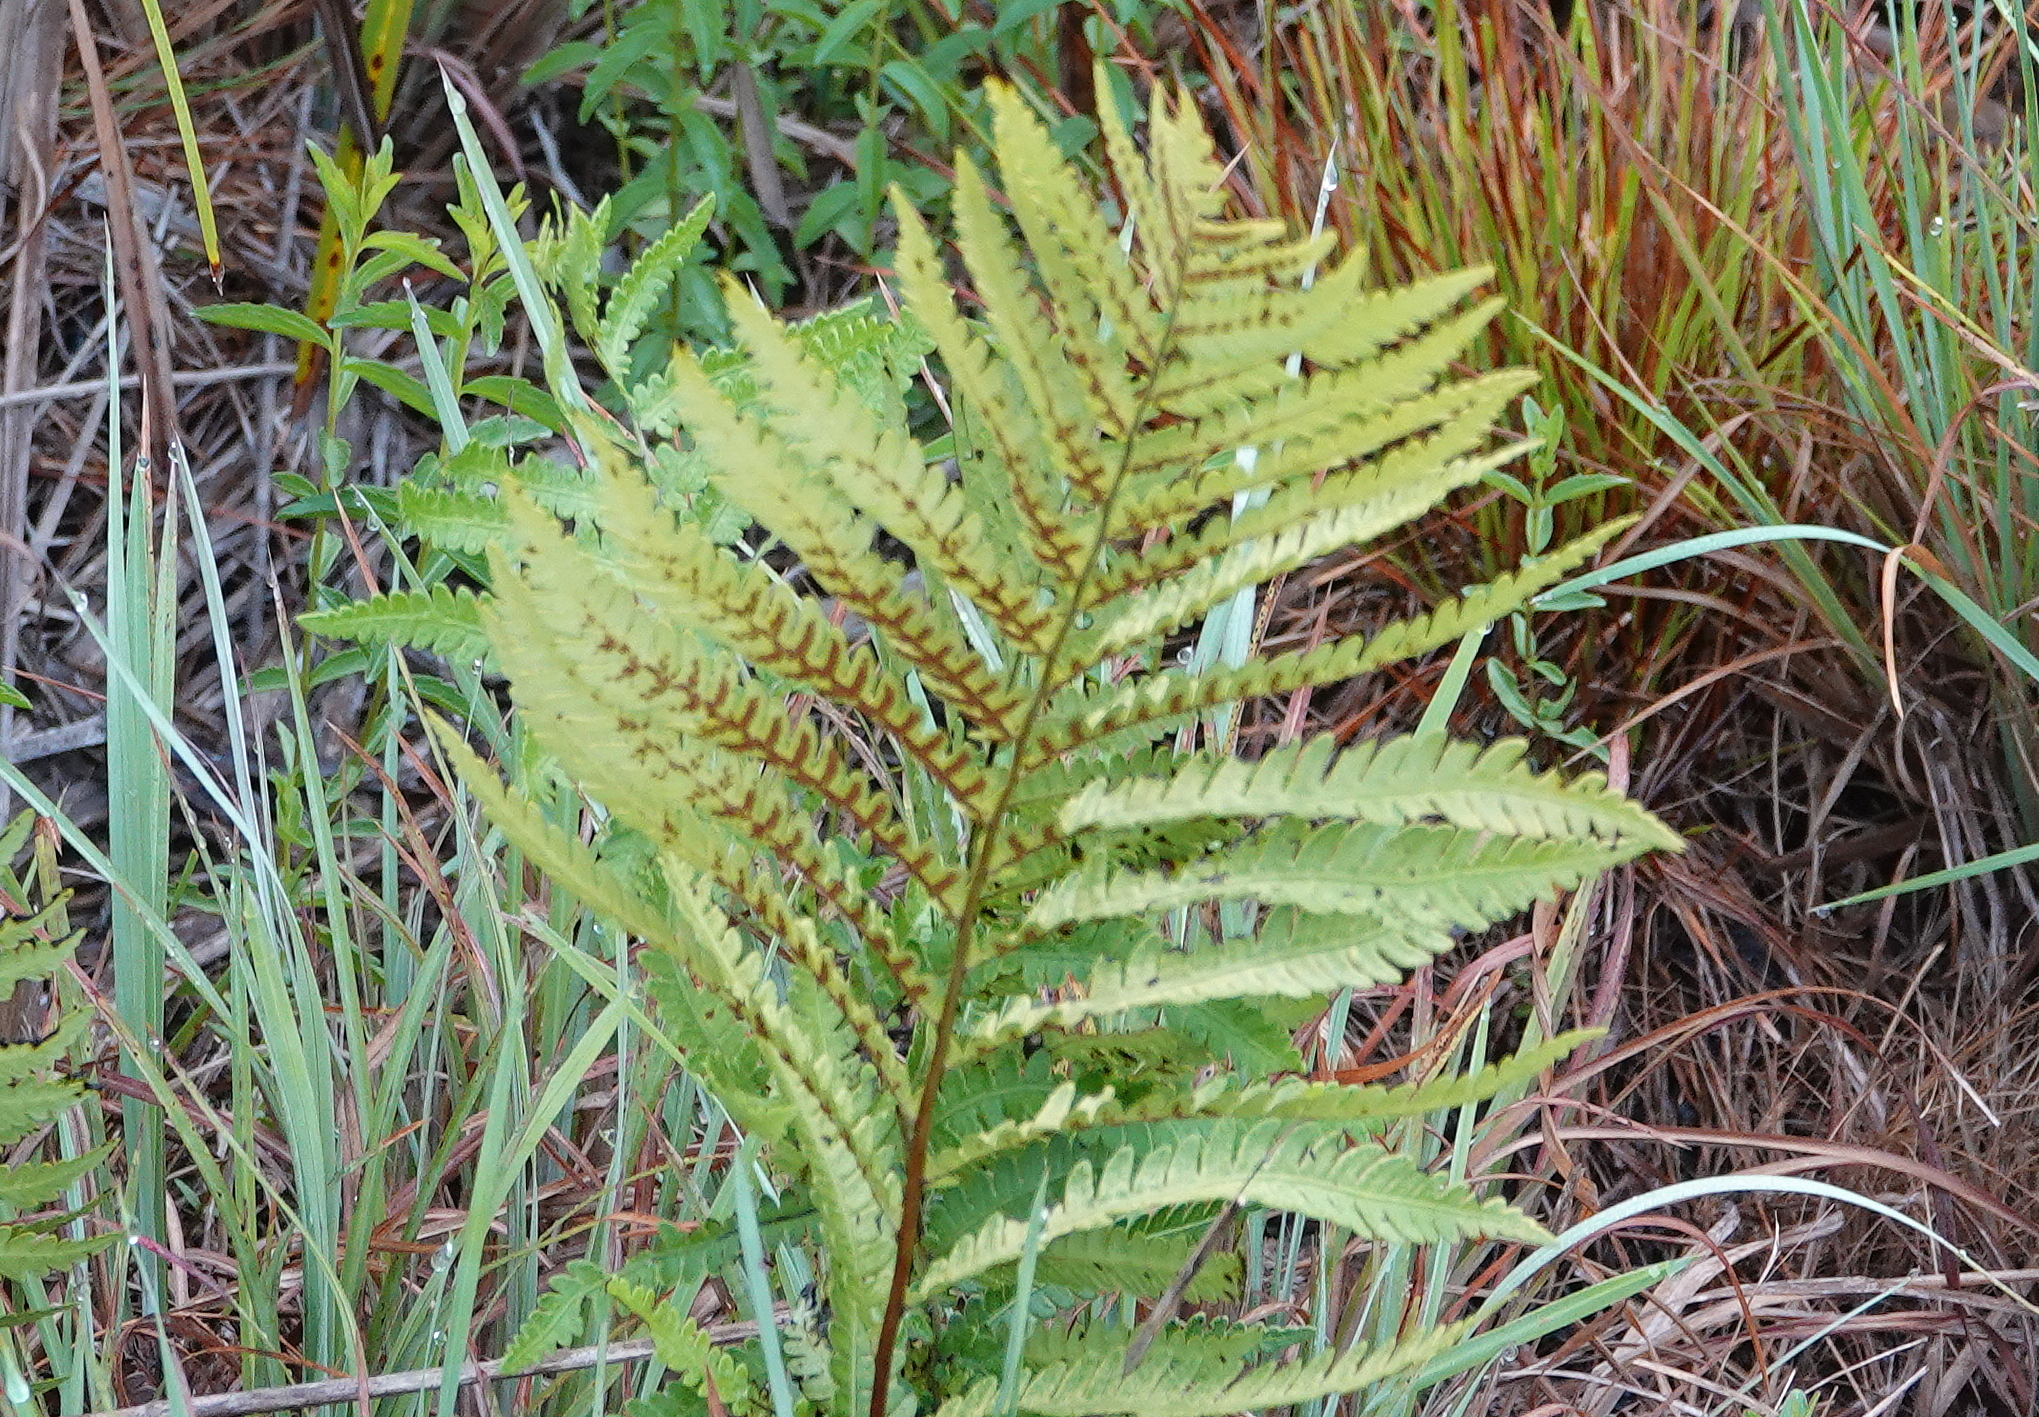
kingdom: Plantae
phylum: Tracheophyta
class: Polypodiopsida
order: Polypodiales
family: Blechnaceae
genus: Anchistea
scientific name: Anchistea virginica
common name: Virginia chain fern
